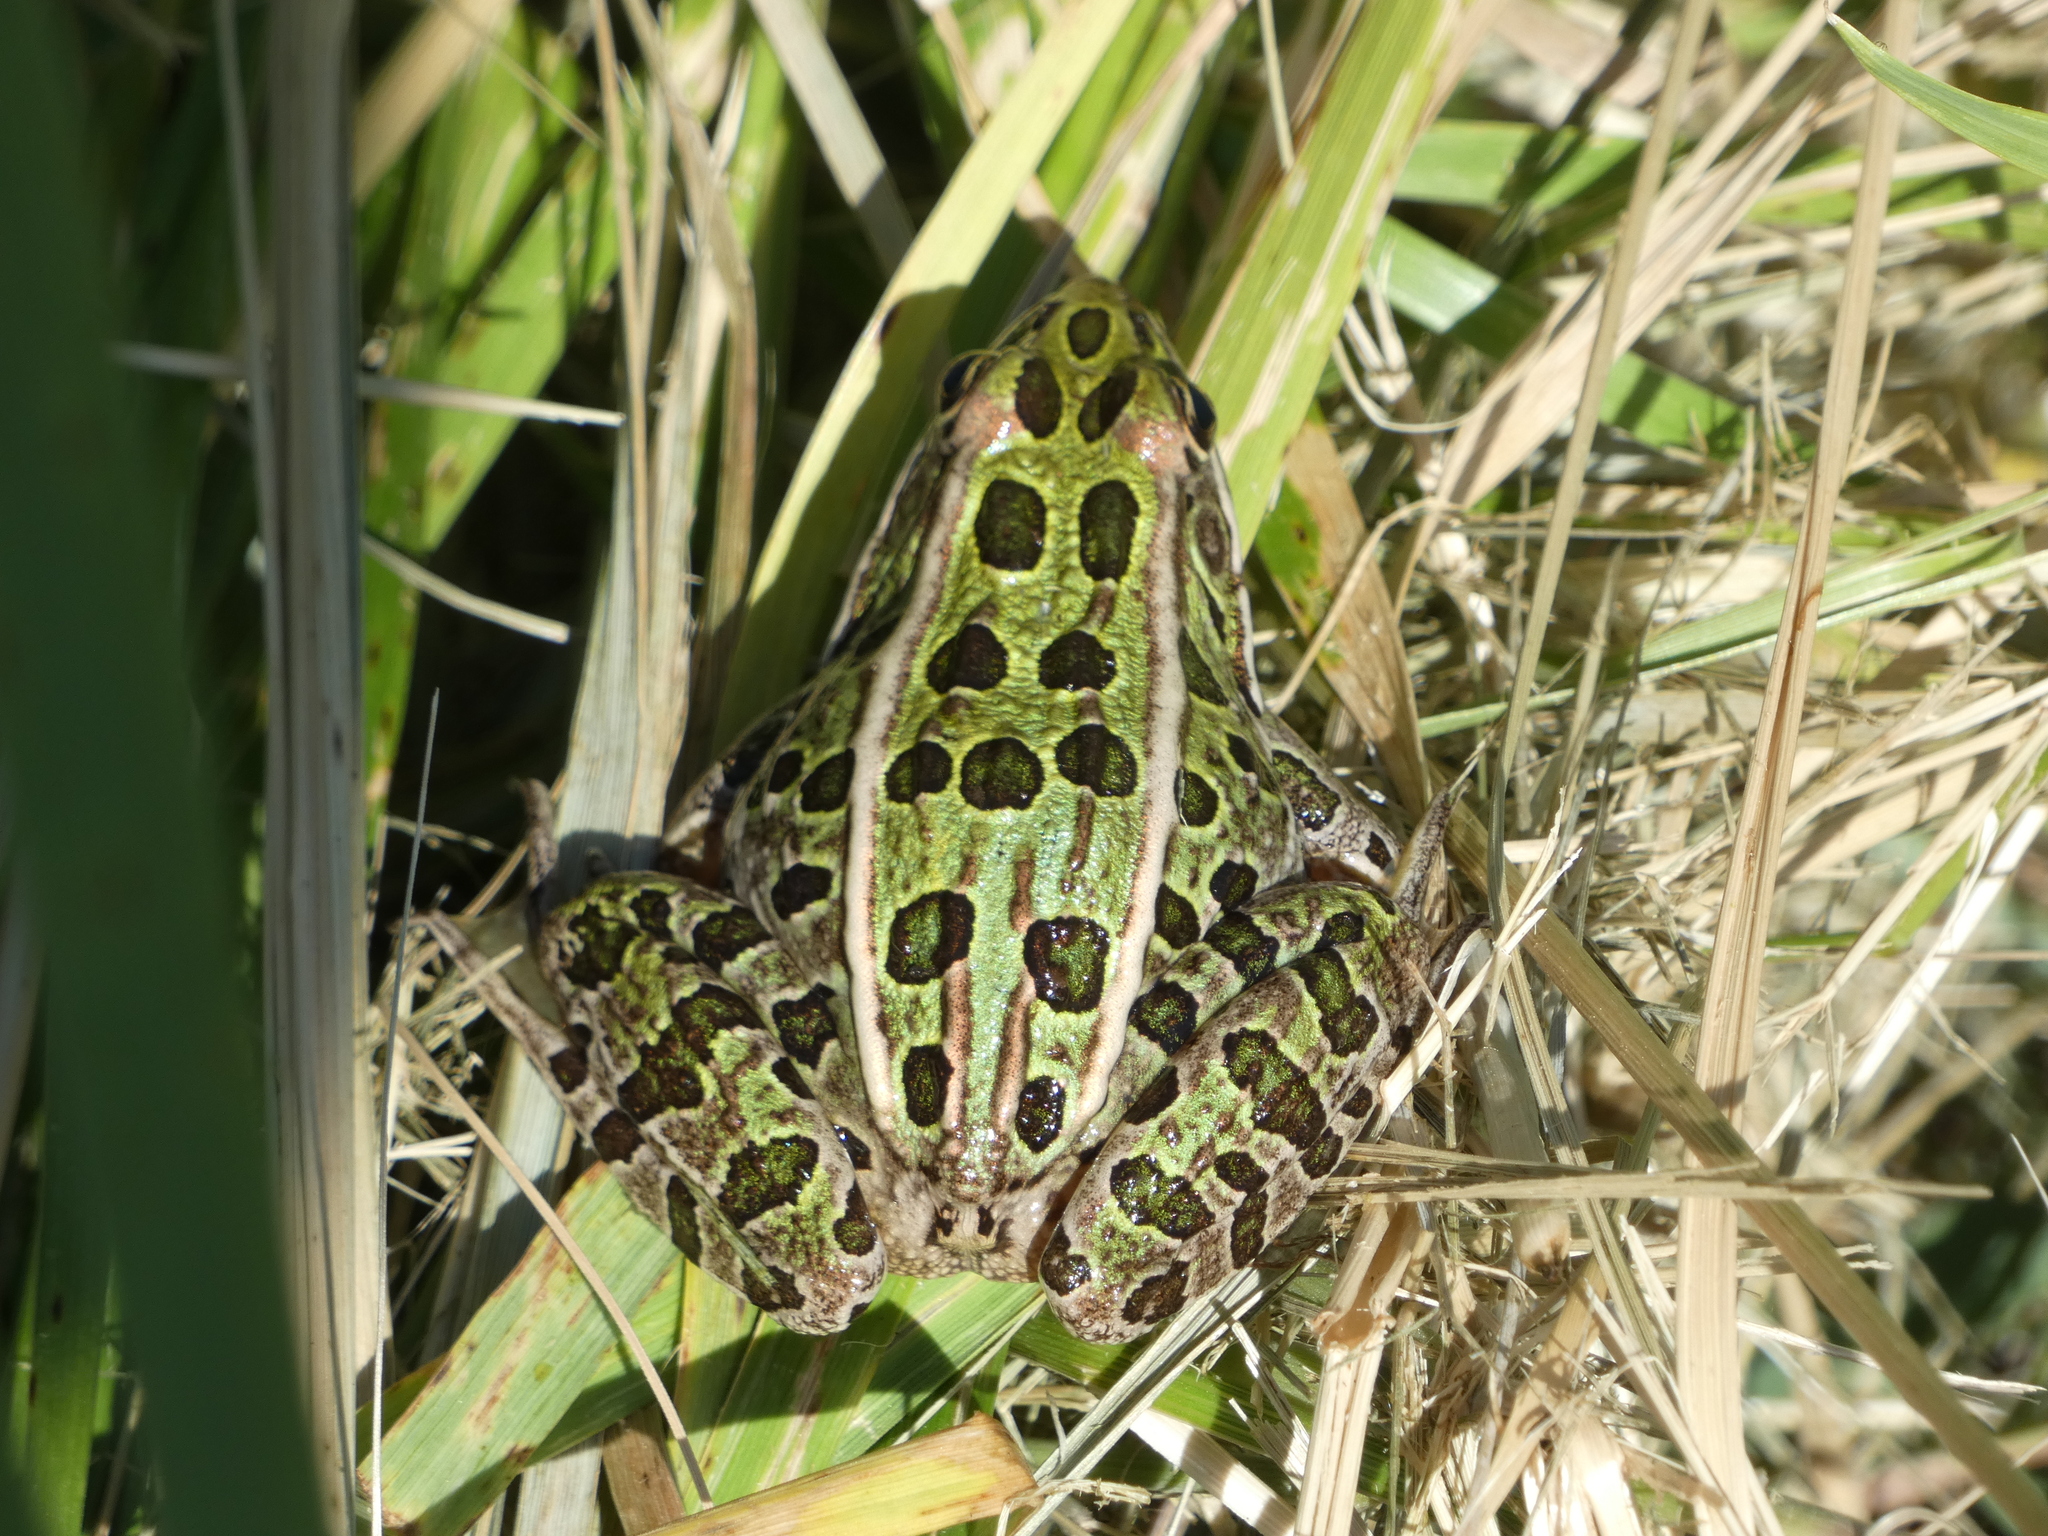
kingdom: Animalia
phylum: Chordata
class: Amphibia
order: Anura
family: Ranidae
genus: Lithobates
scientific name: Lithobates pipiens
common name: Northern leopard frog
